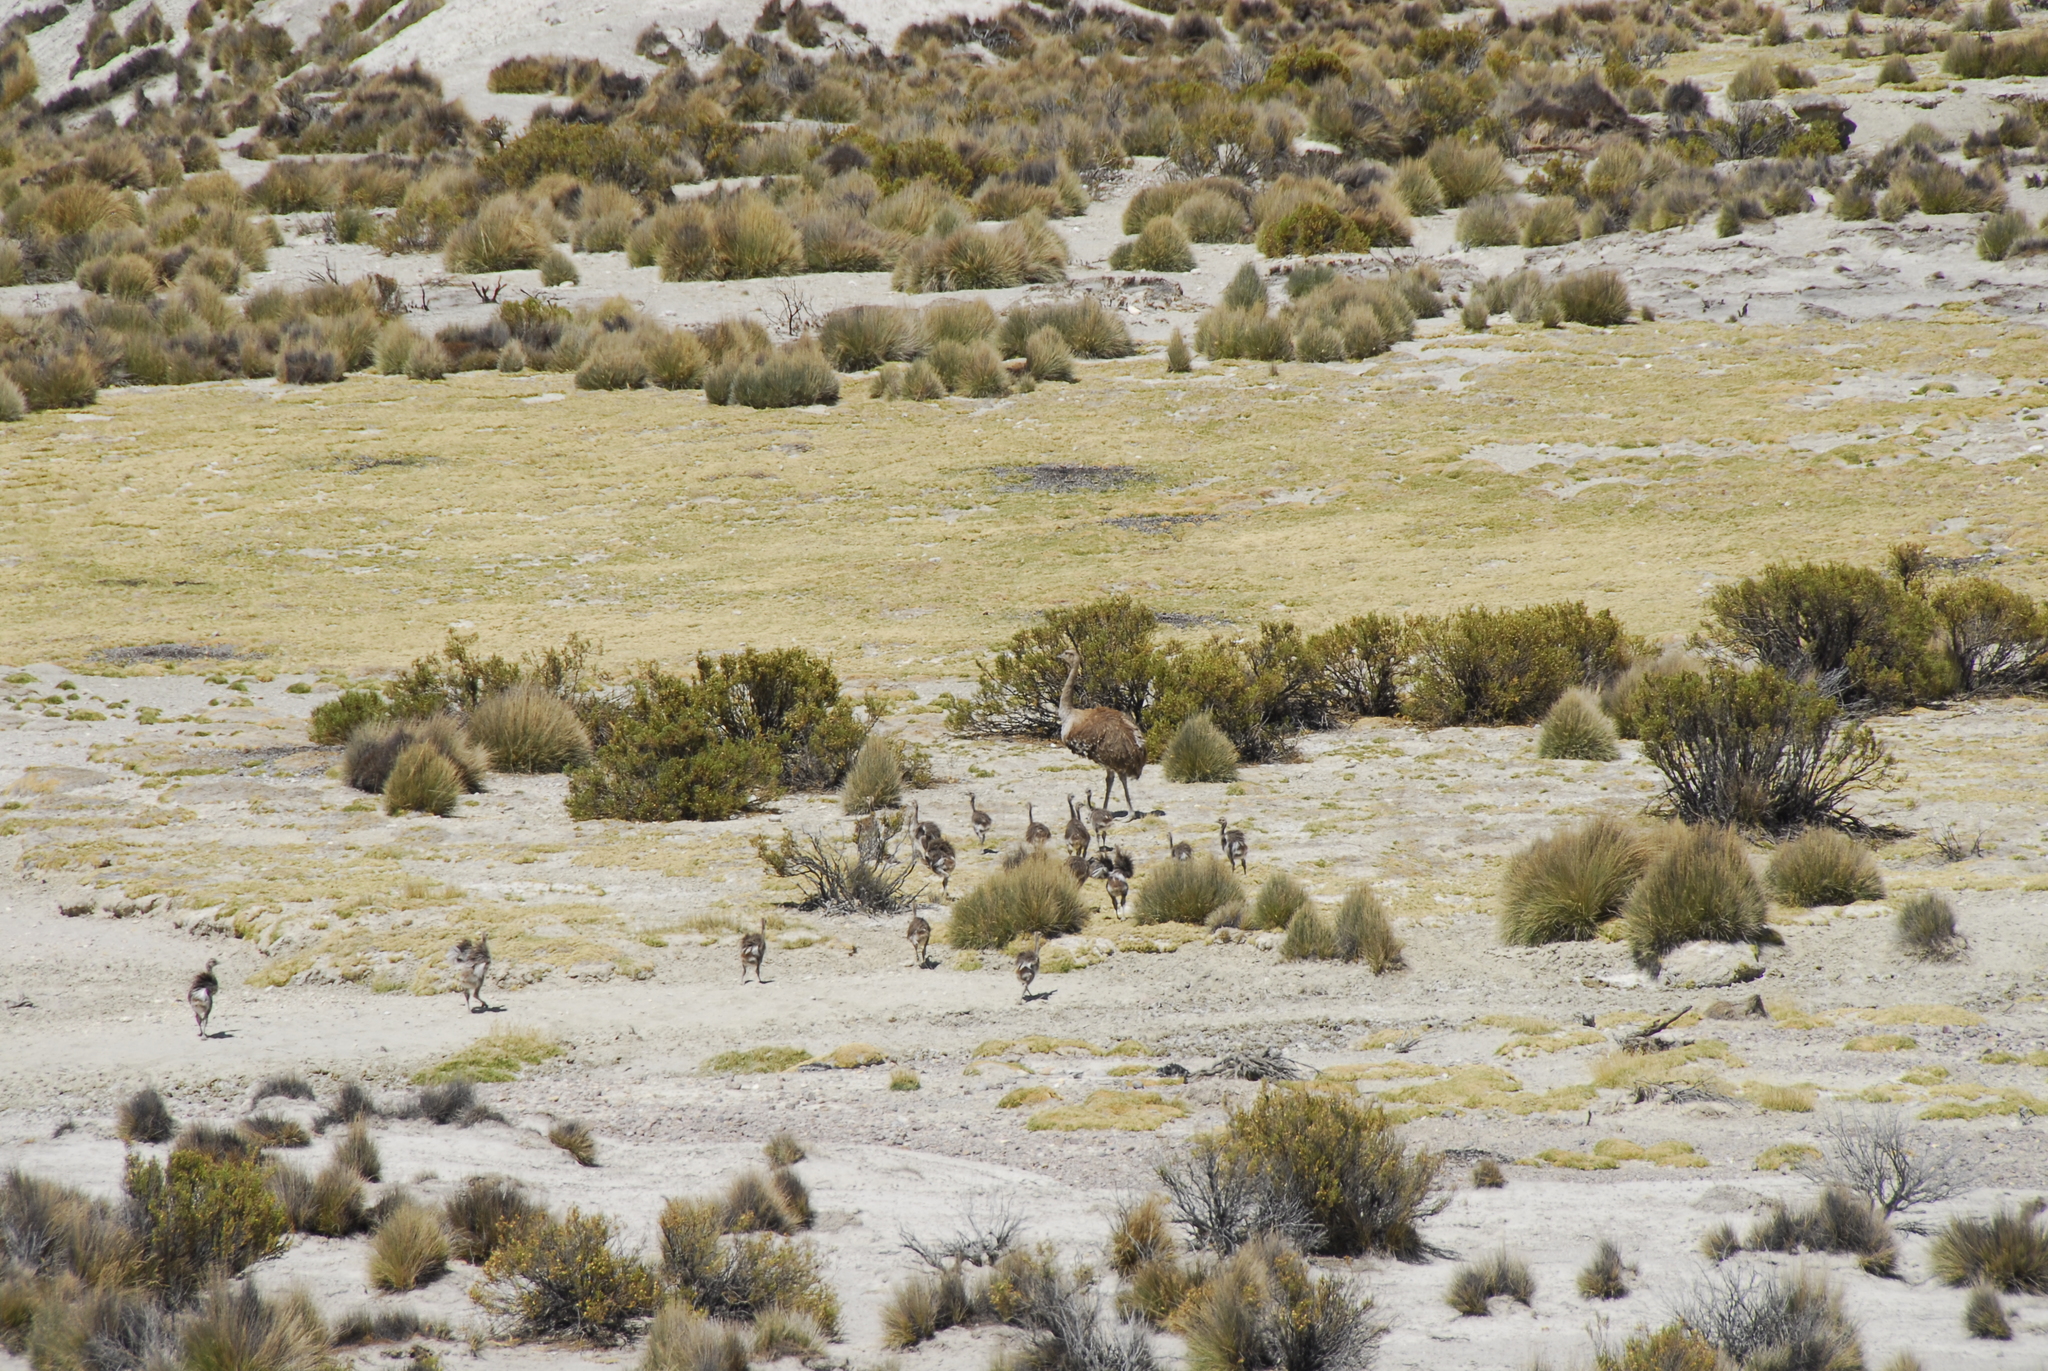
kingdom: Animalia
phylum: Chordata
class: Aves
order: Rheiformes
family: Rheidae
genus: Rhea
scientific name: Rhea pennata
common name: Lesser rhea
